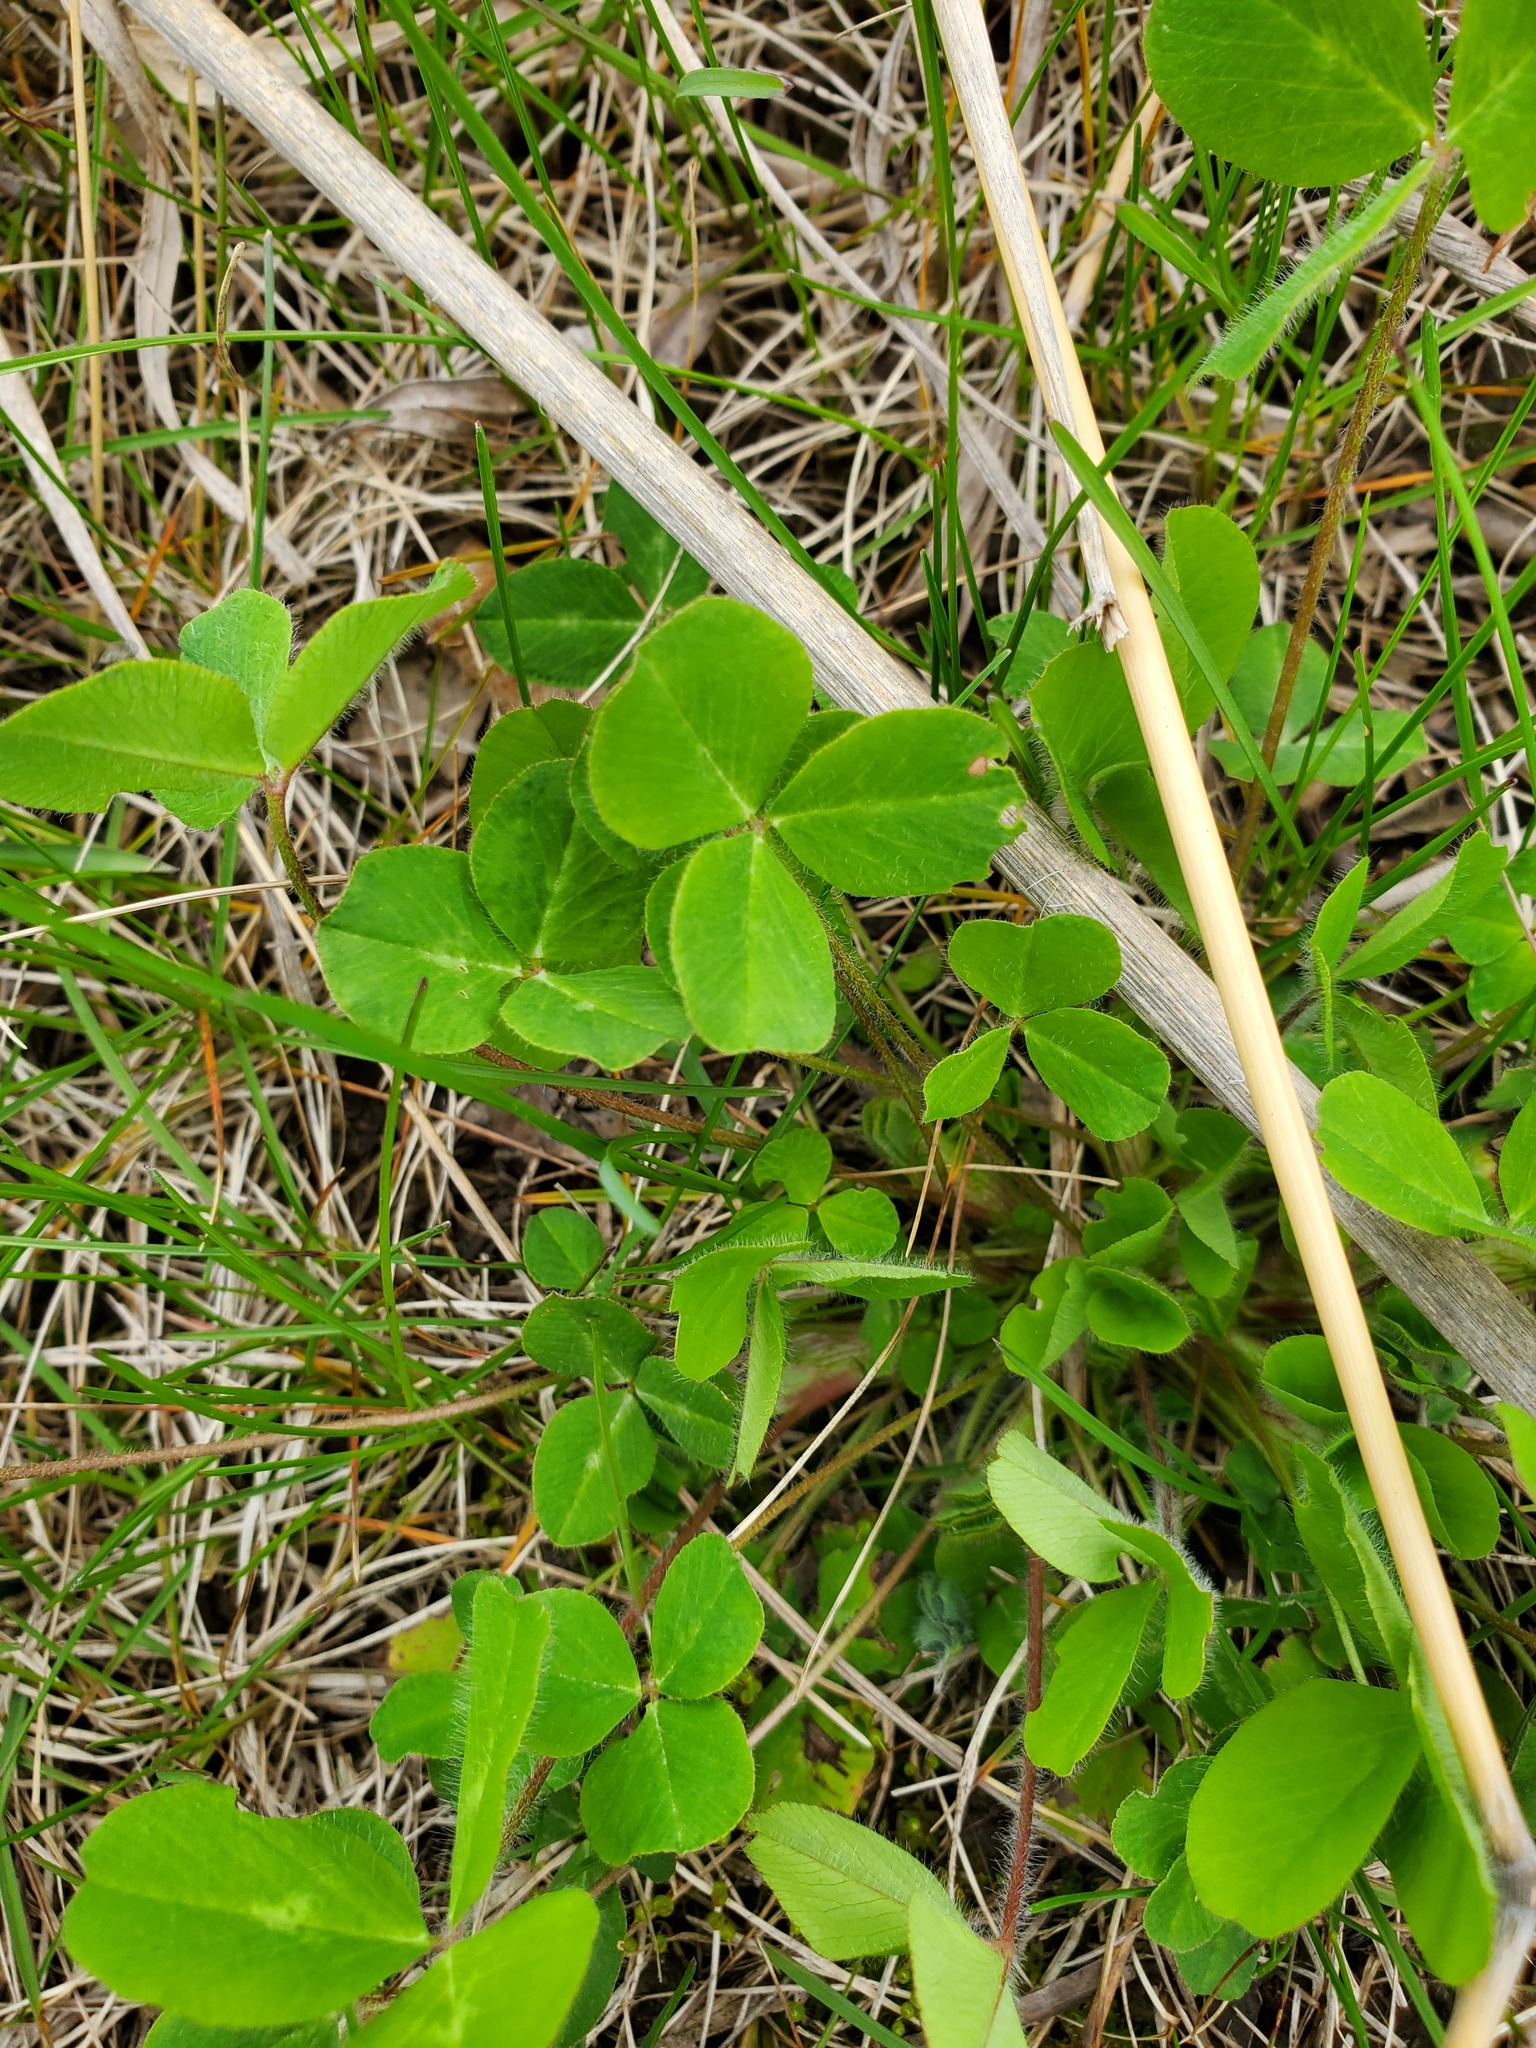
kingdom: Plantae
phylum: Tracheophyta
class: Magnoliopsida
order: Fabales
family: Fabaceae
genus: Trifolium
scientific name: Trifolium repens
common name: White clover
